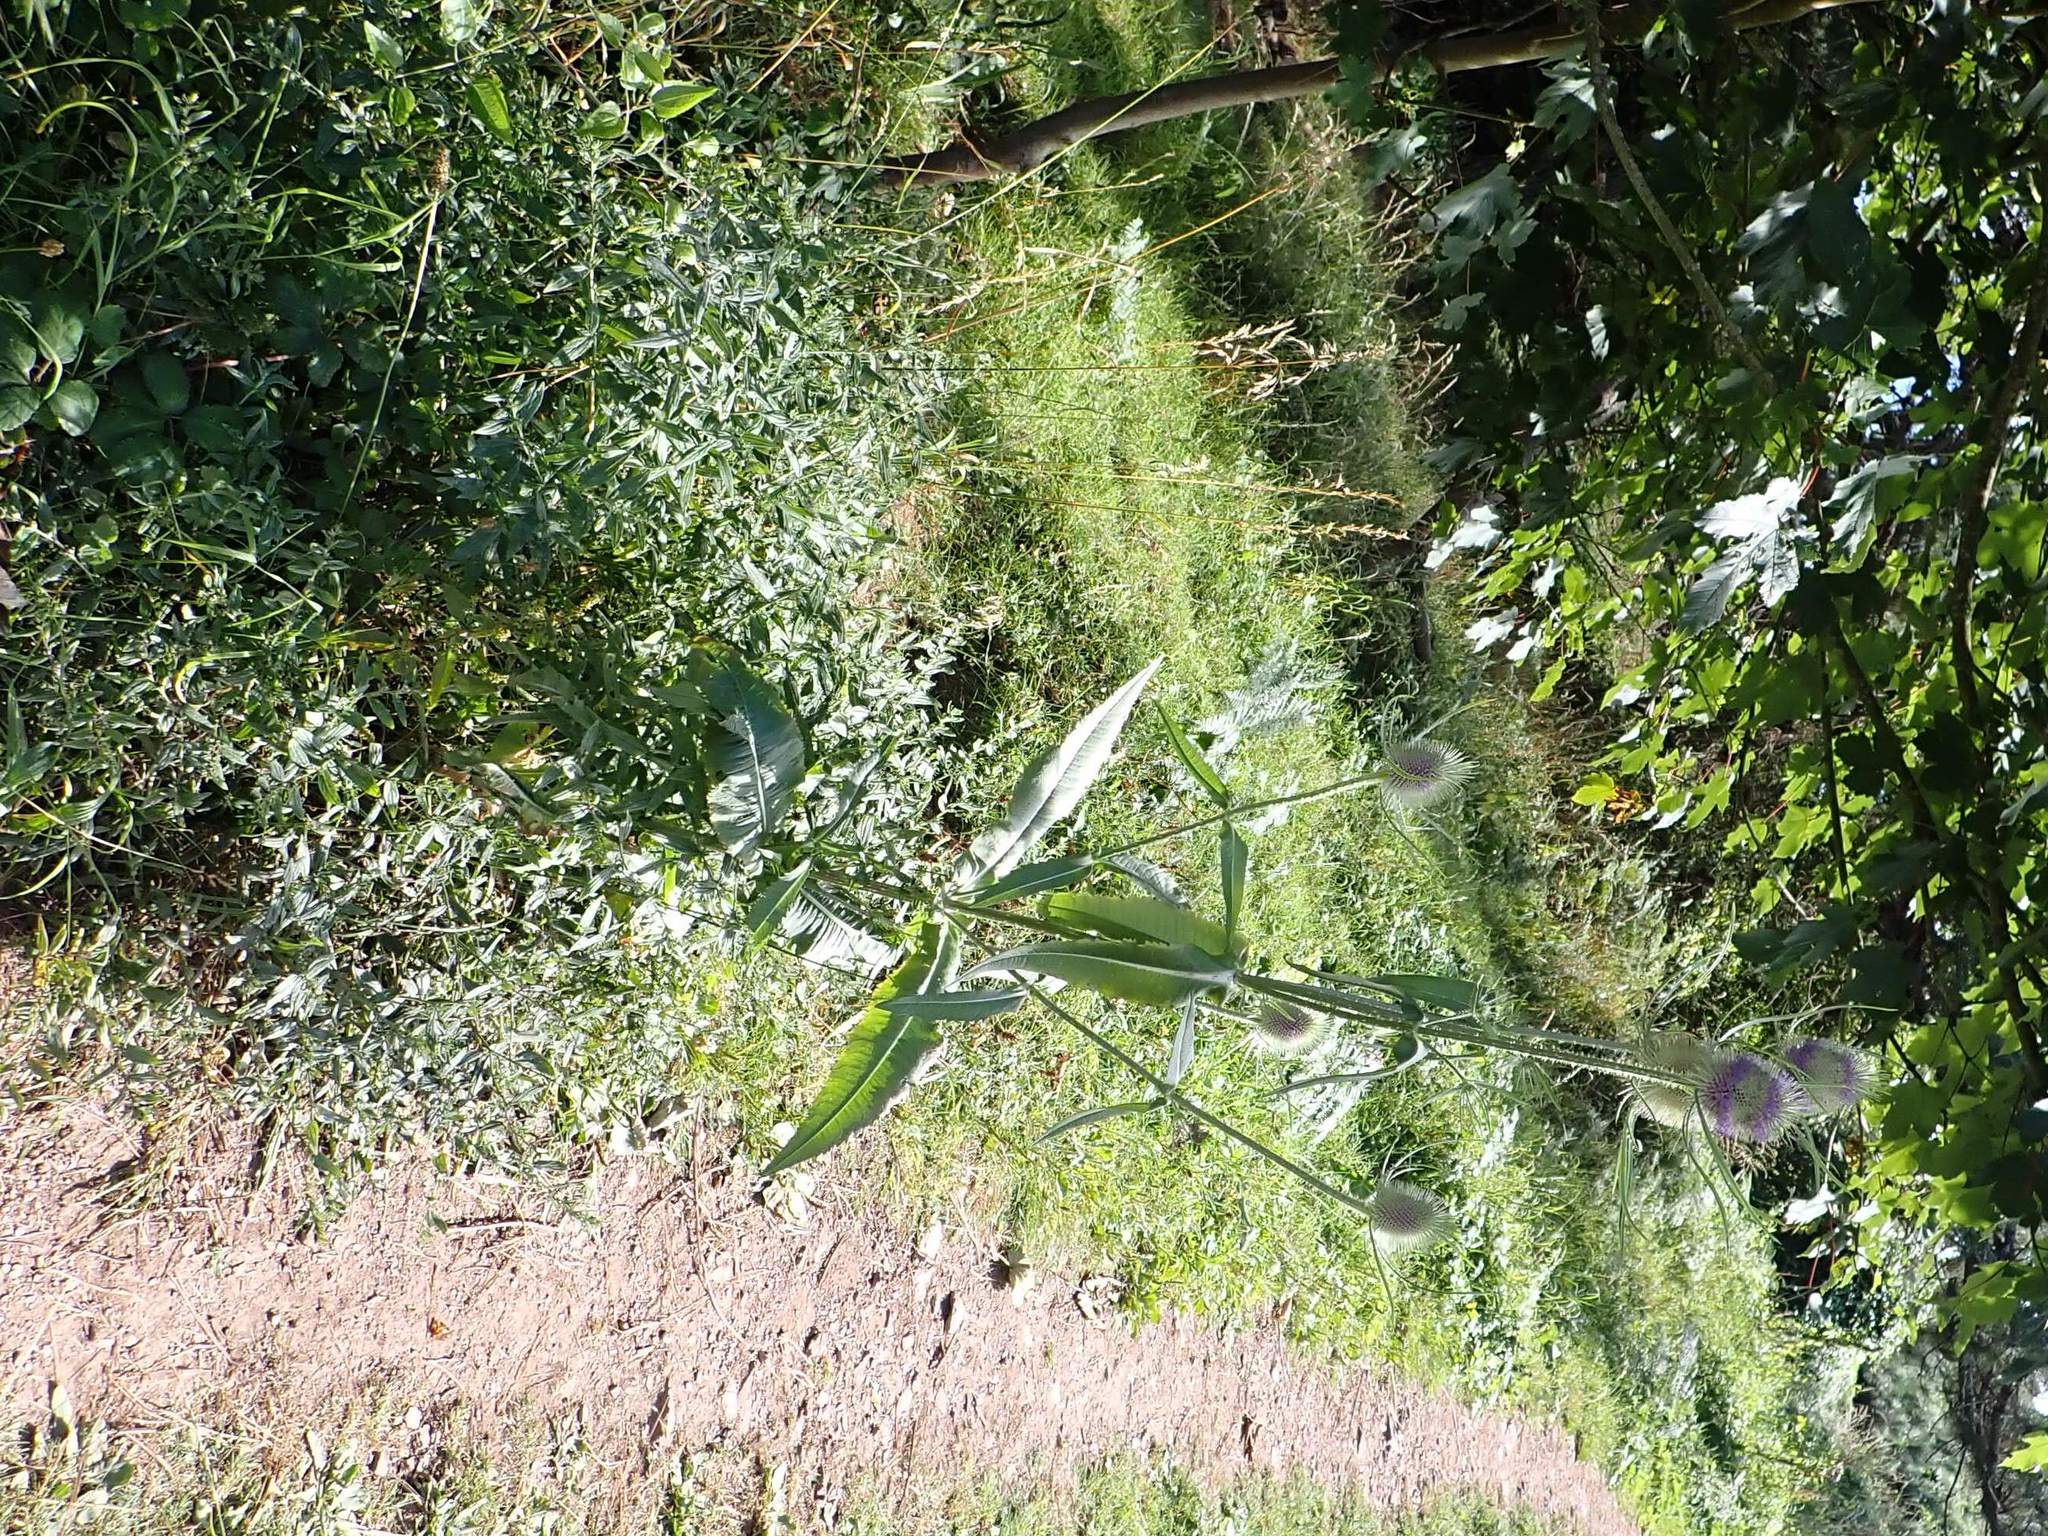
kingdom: Plantae
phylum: Tracheophyta
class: Magnoliopsida
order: Dipsacales
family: Caprifoliaceae
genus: Dipsacus
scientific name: Dipsacus fullonum
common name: Teasel
